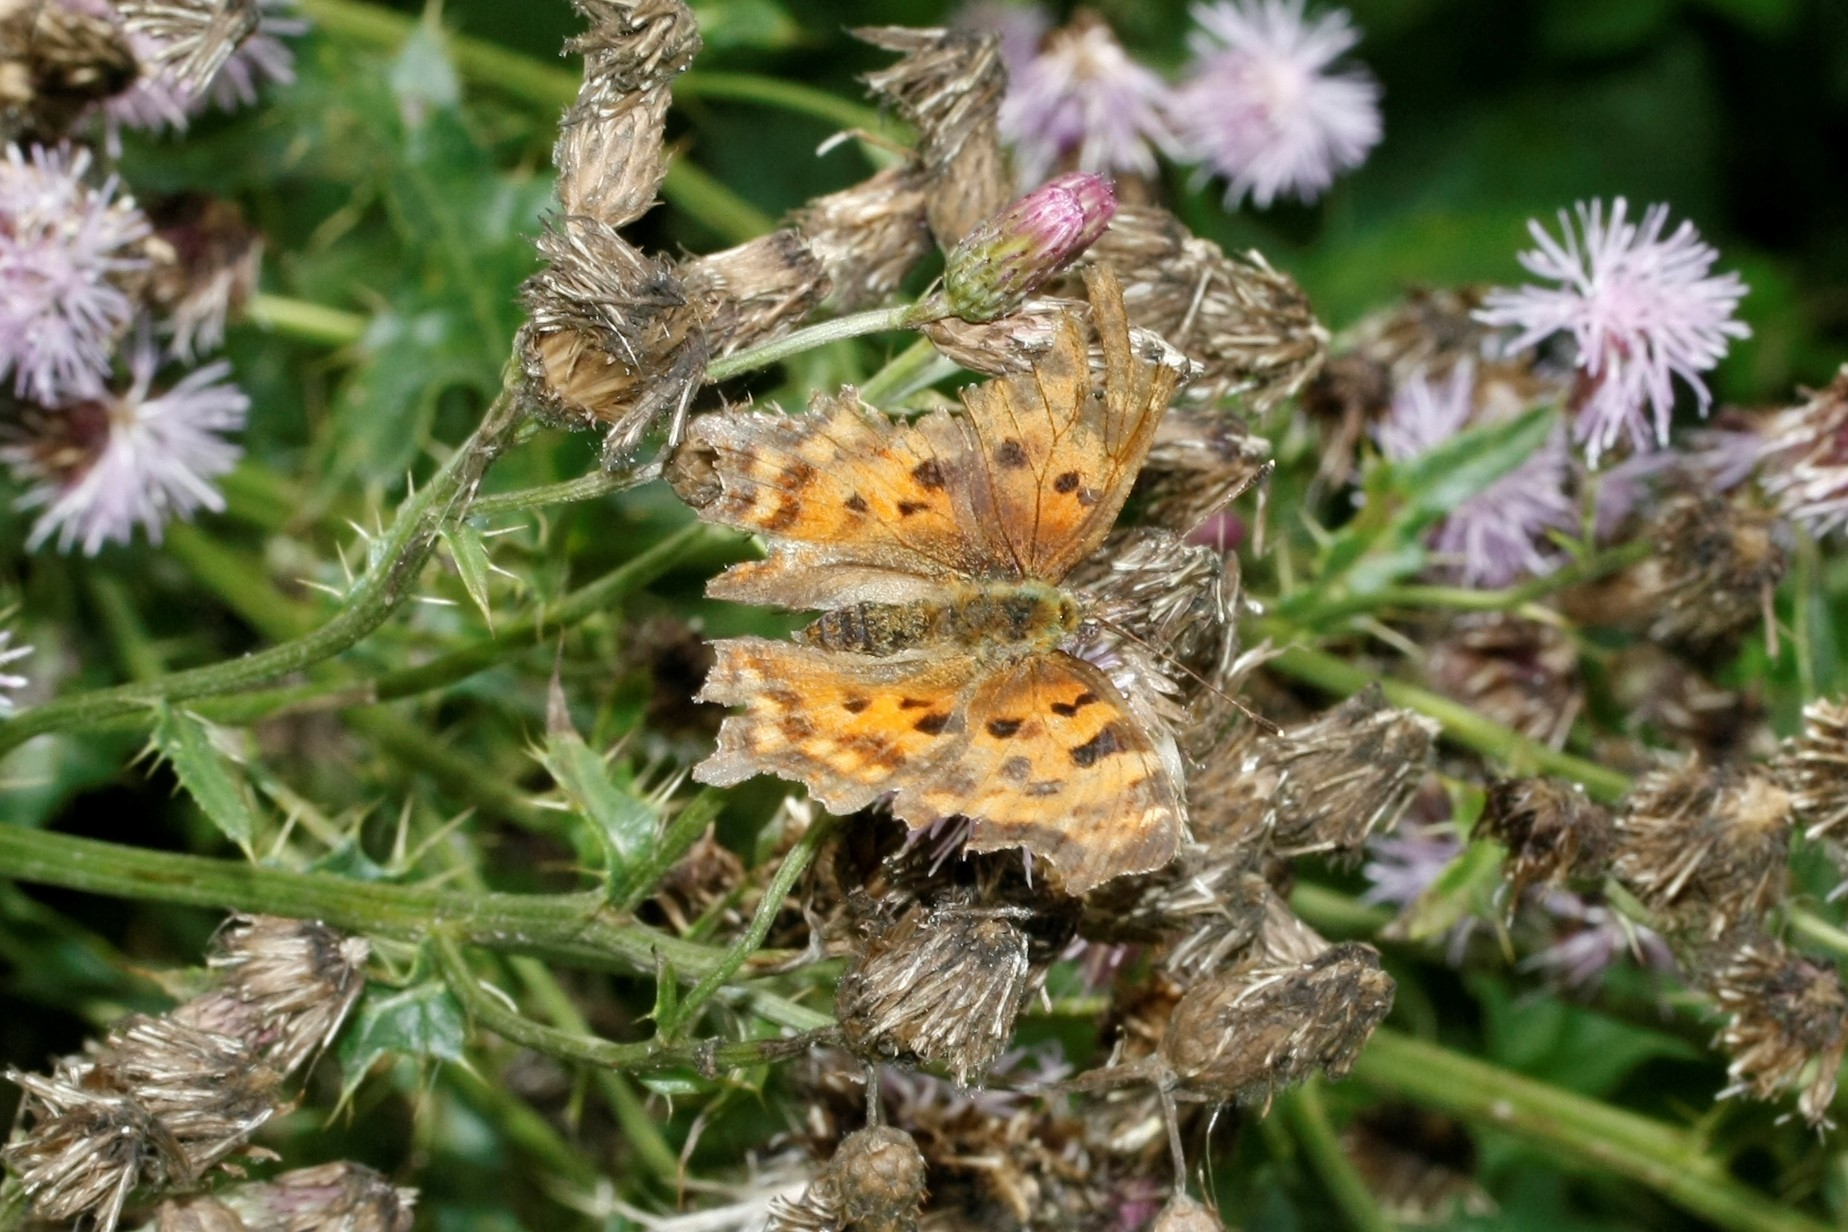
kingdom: Animalia
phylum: Arthropoda
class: Insecta
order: Lepidoptera
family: Nymphalidae
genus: Polygonia
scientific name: Polygonia c-album
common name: Comma
